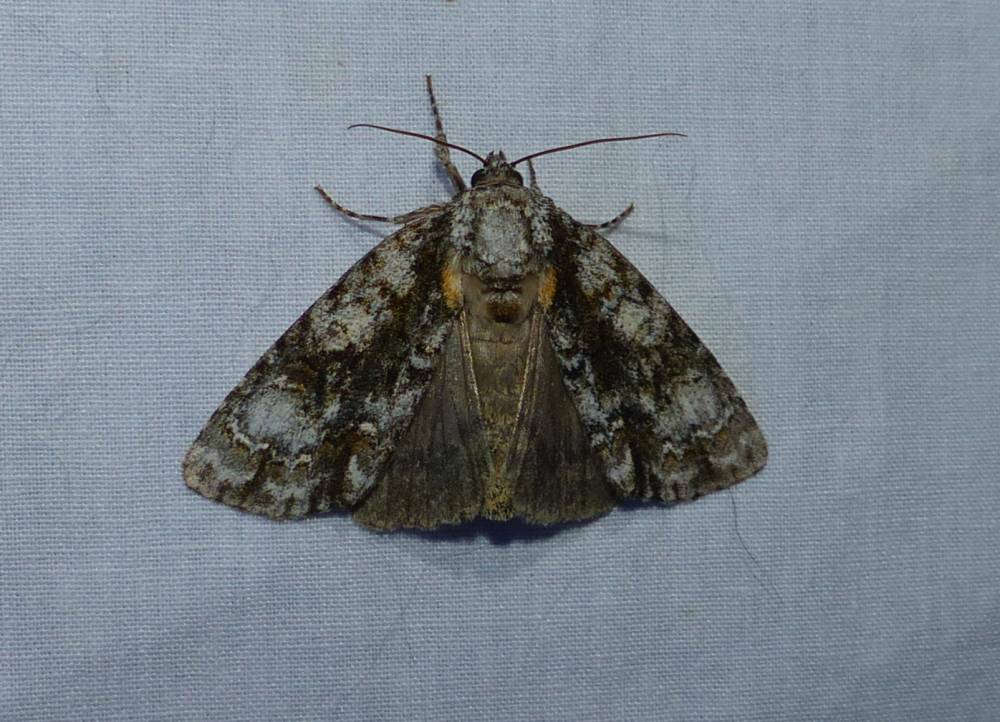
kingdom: Animalia
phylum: Arthropoda
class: Insecta
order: Lepidoptera
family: Noctuidae
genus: Acronicta
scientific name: Acronicta superans
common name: Splendid dagger
